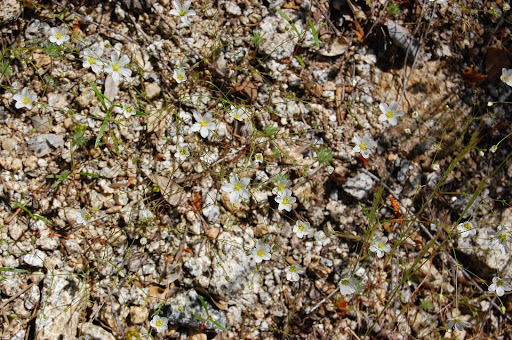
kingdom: Plantae
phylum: Tracheophyta
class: Magnoliopsida
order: Caryophyllales
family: Caryophyllaceae
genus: Sabulina
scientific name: Sabulina douglasii
